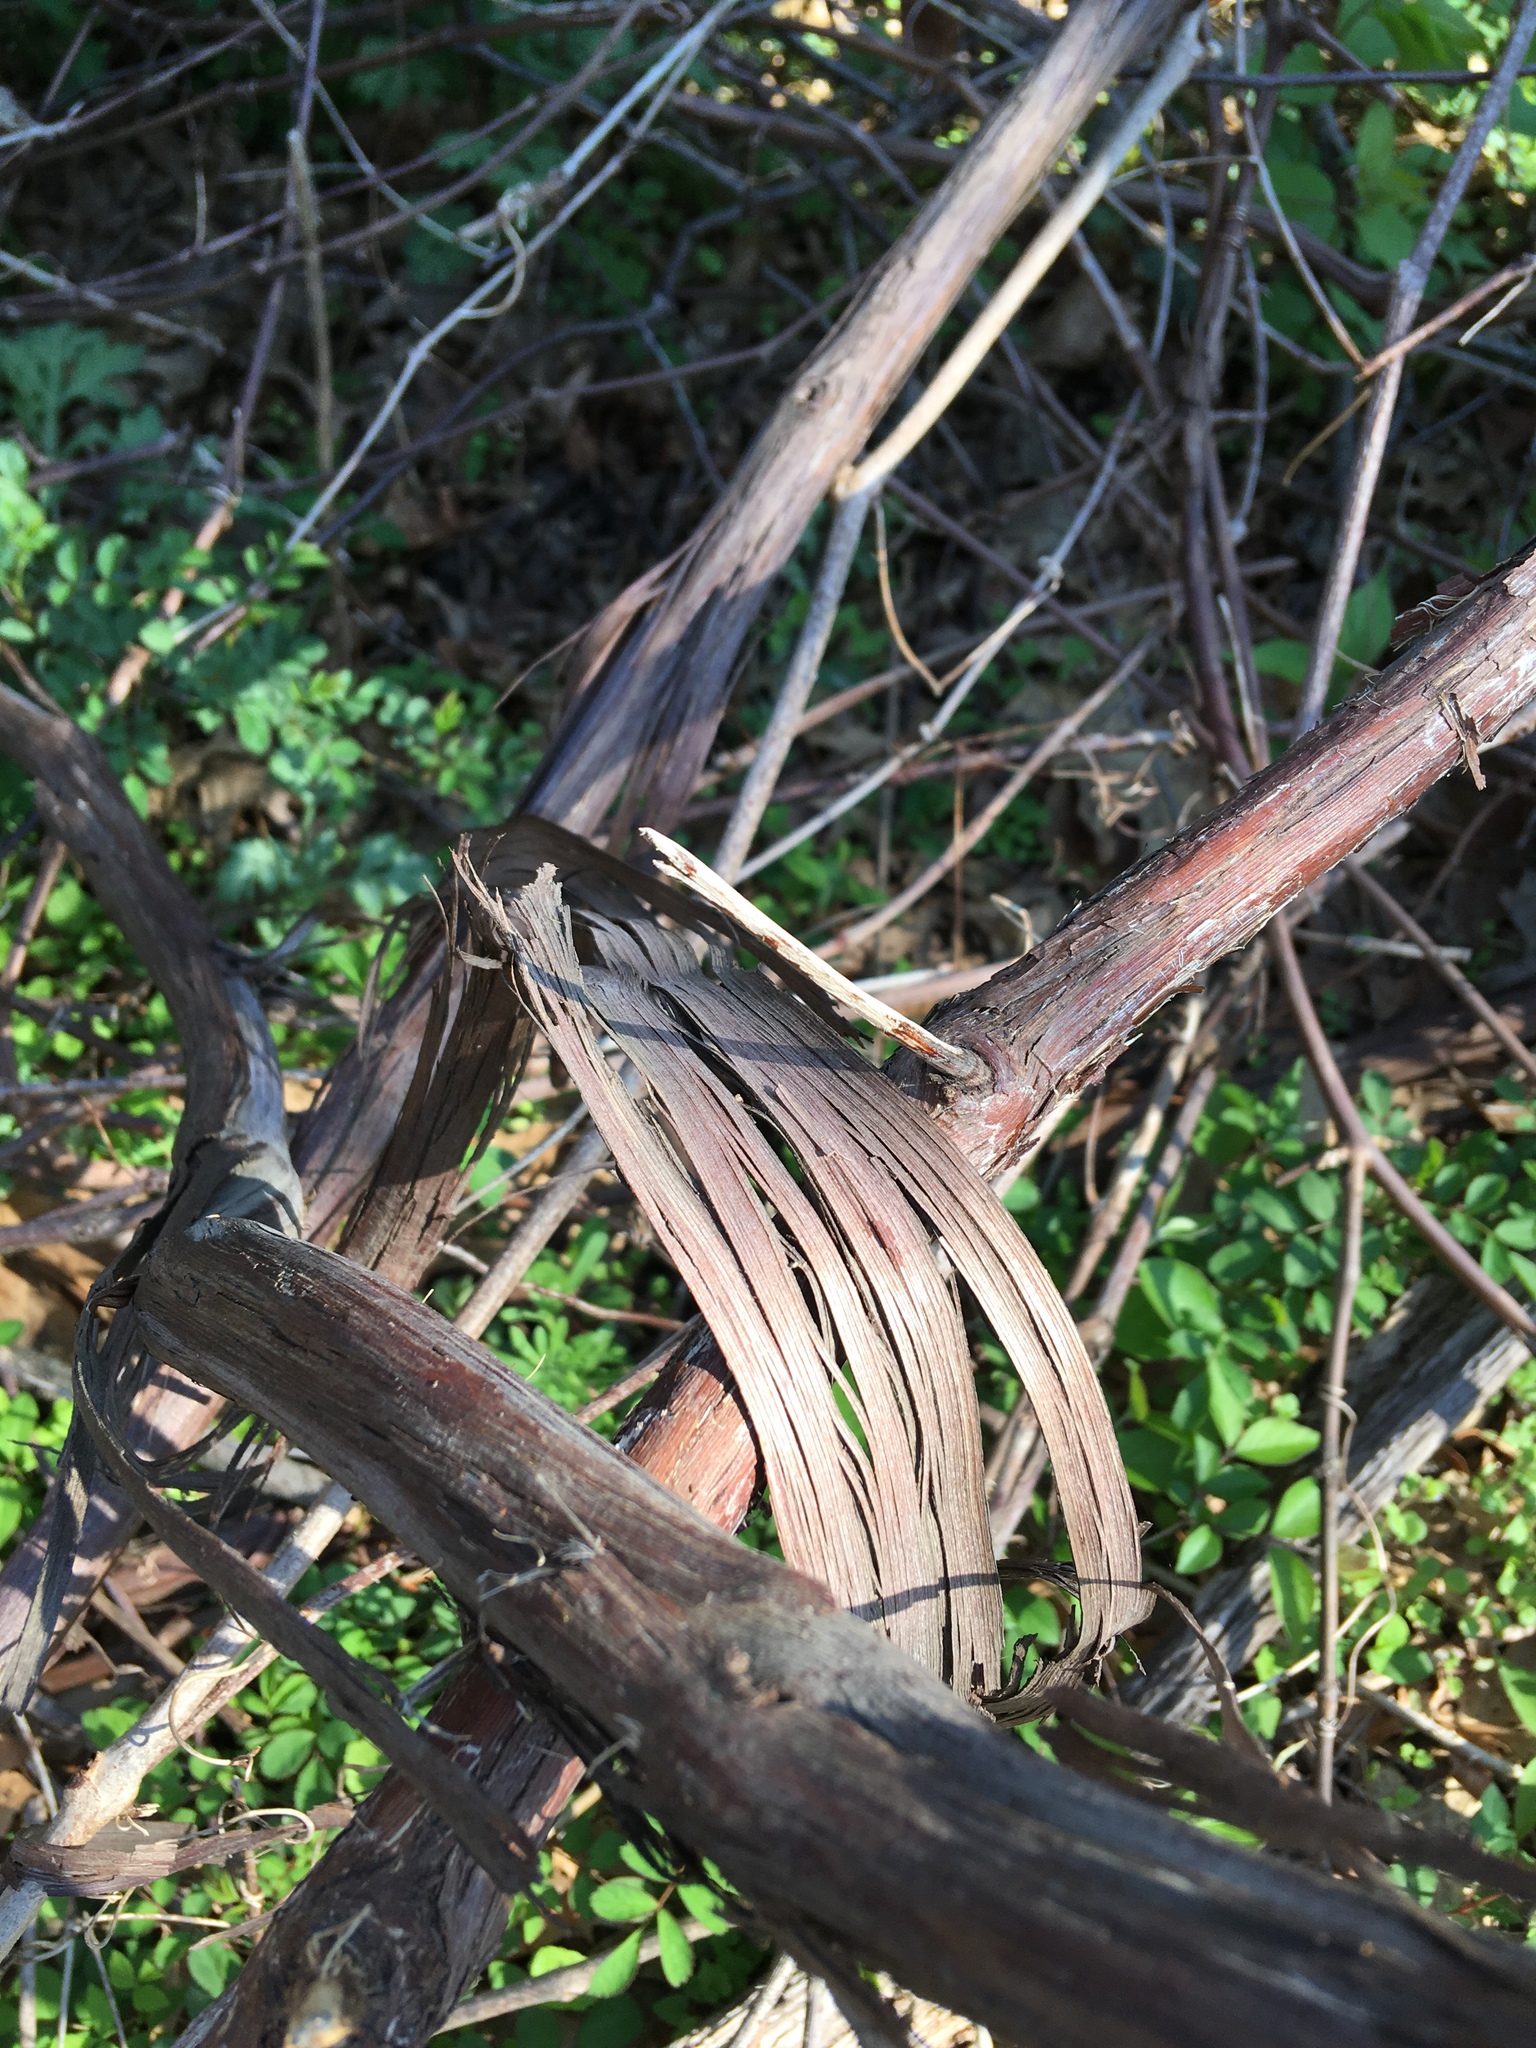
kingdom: Plantae
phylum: Tracheophyta
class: Magnoliopsida
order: Vitales
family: Vitaceae
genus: Vitis
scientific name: Vitis
